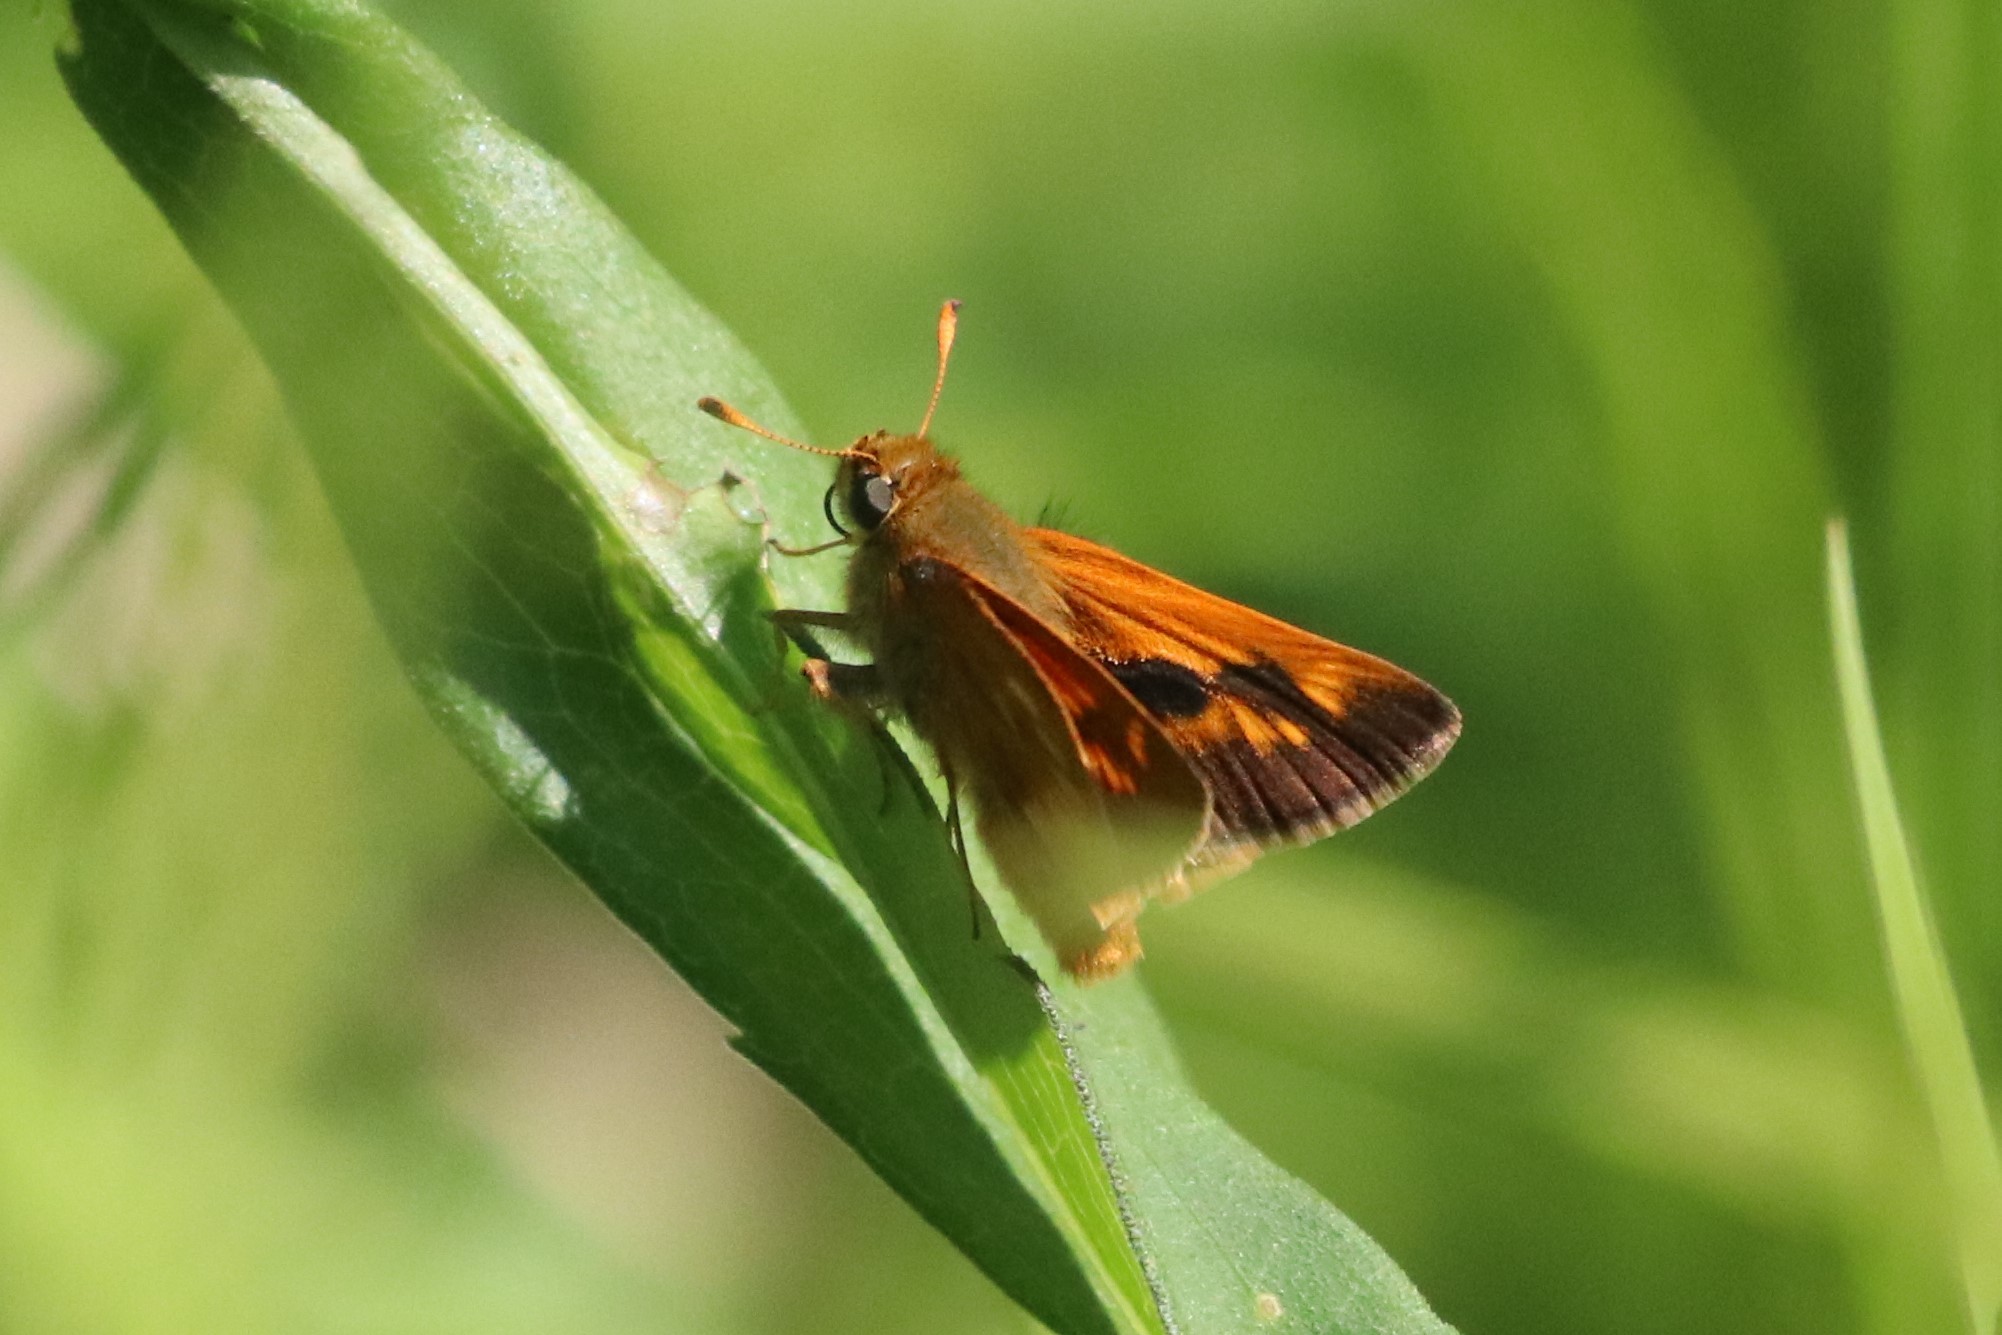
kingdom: Animalia
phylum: Arthropoda
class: Insecta
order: Lepidoptera
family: Hesperiidae
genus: Polites
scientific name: Polites mystic
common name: Long dash
